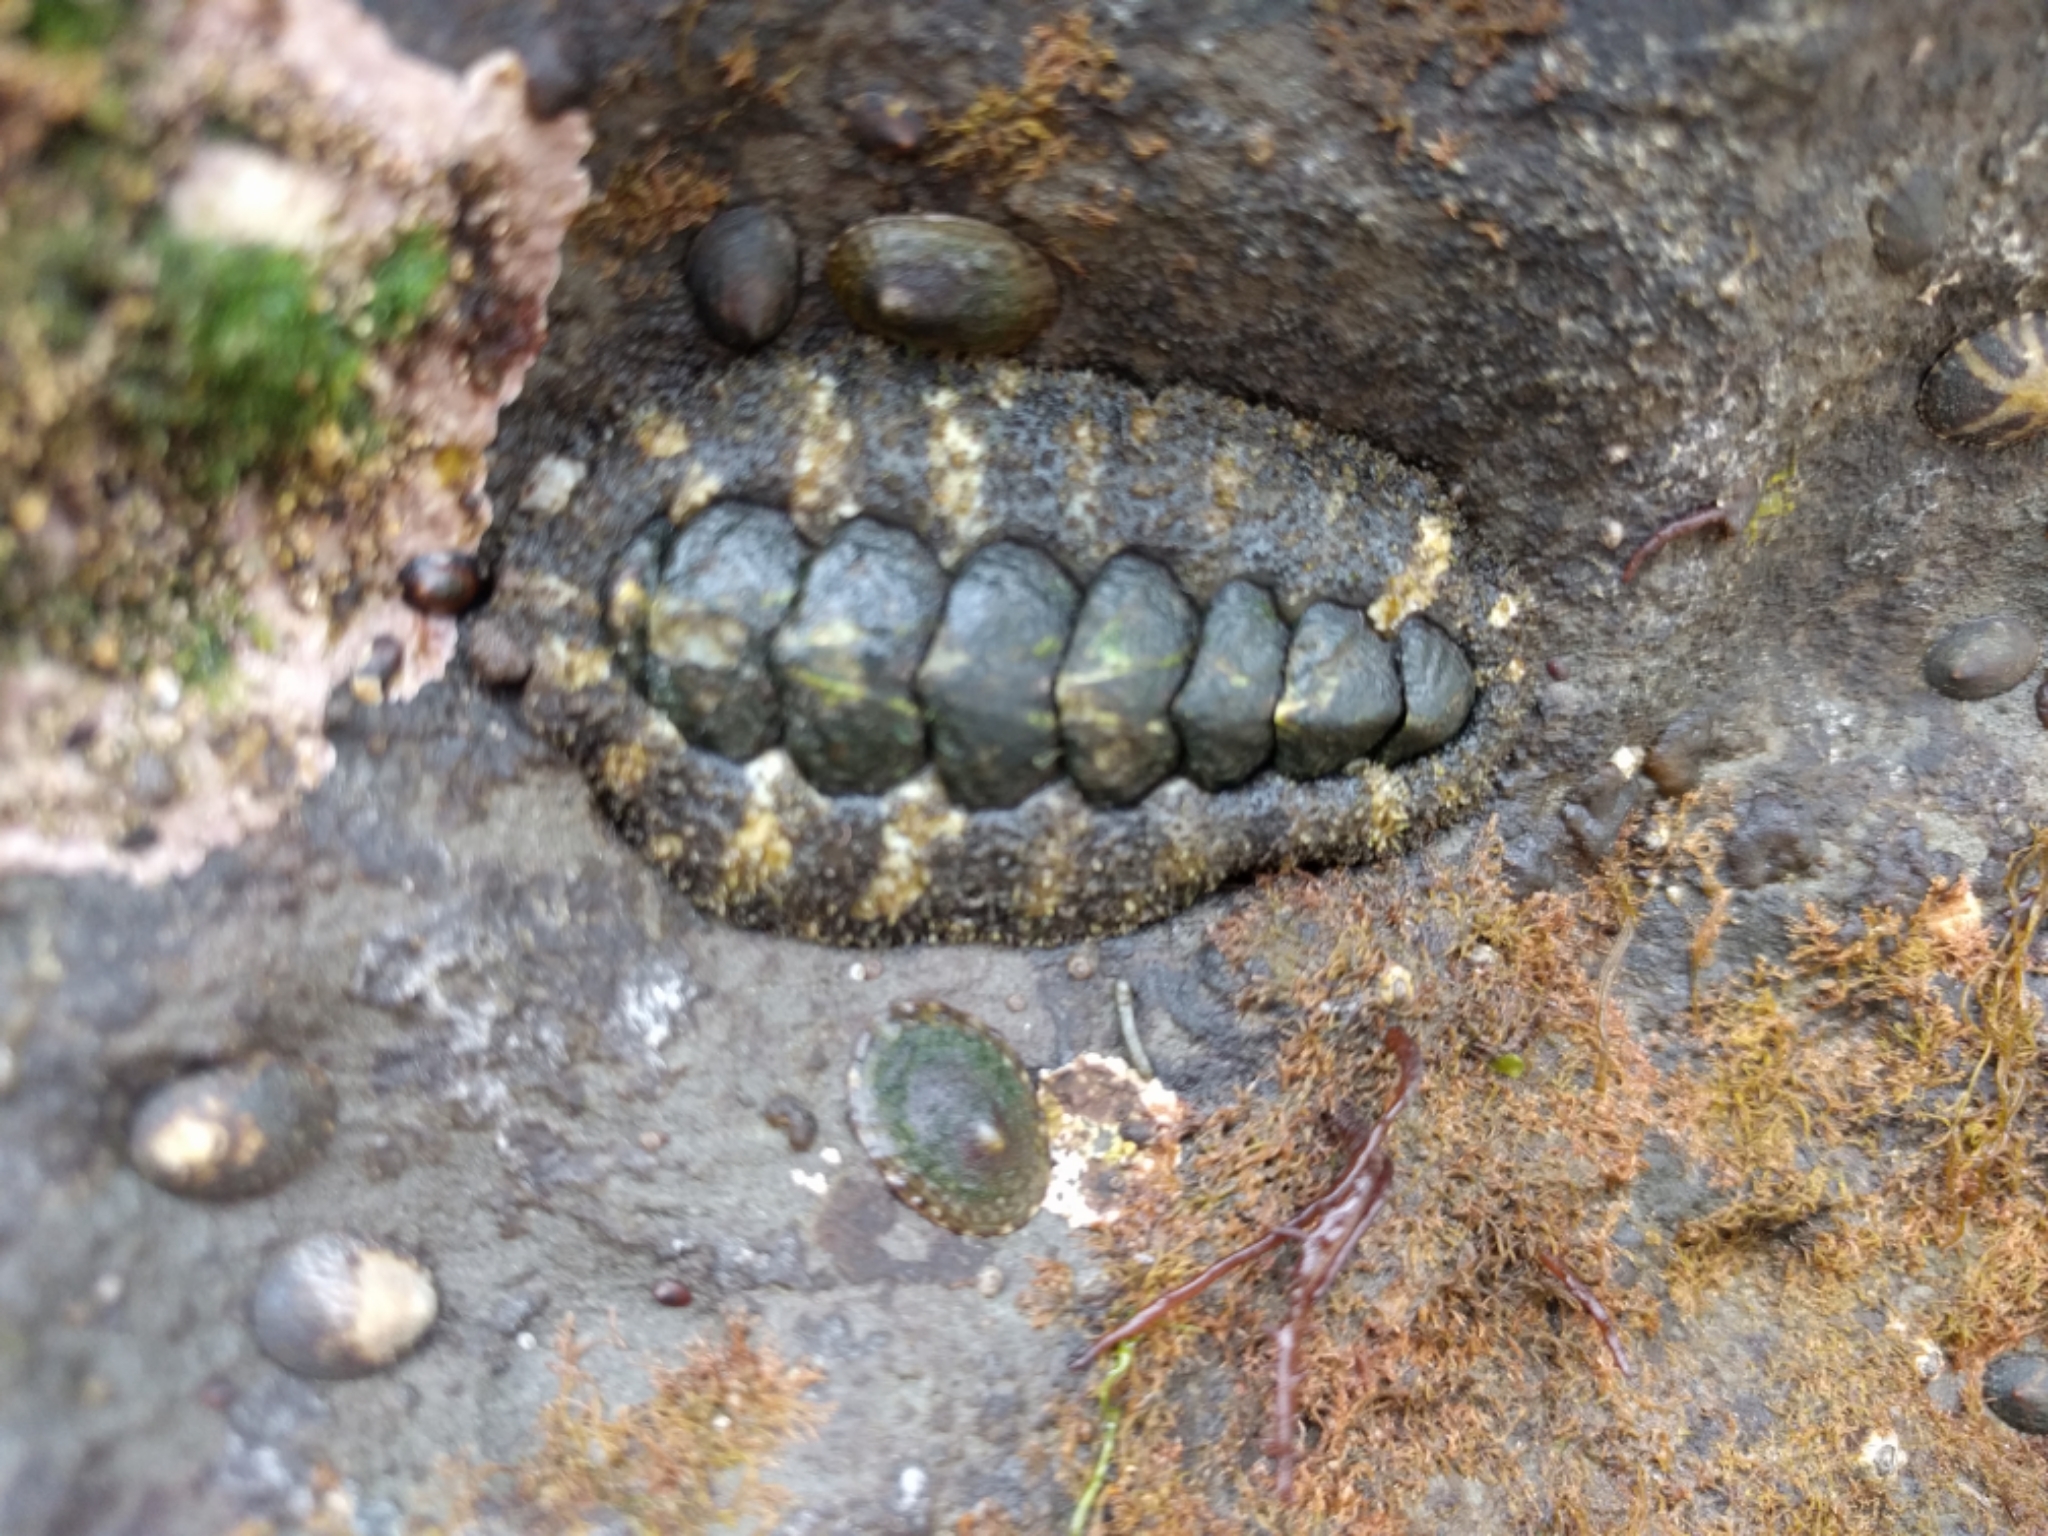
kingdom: Animalia
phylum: Mollusca
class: Polyplacophora
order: Chitonida
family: Tonicellidae
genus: Nuttallina
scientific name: Nuttallina californica
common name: California nuttall chiton
